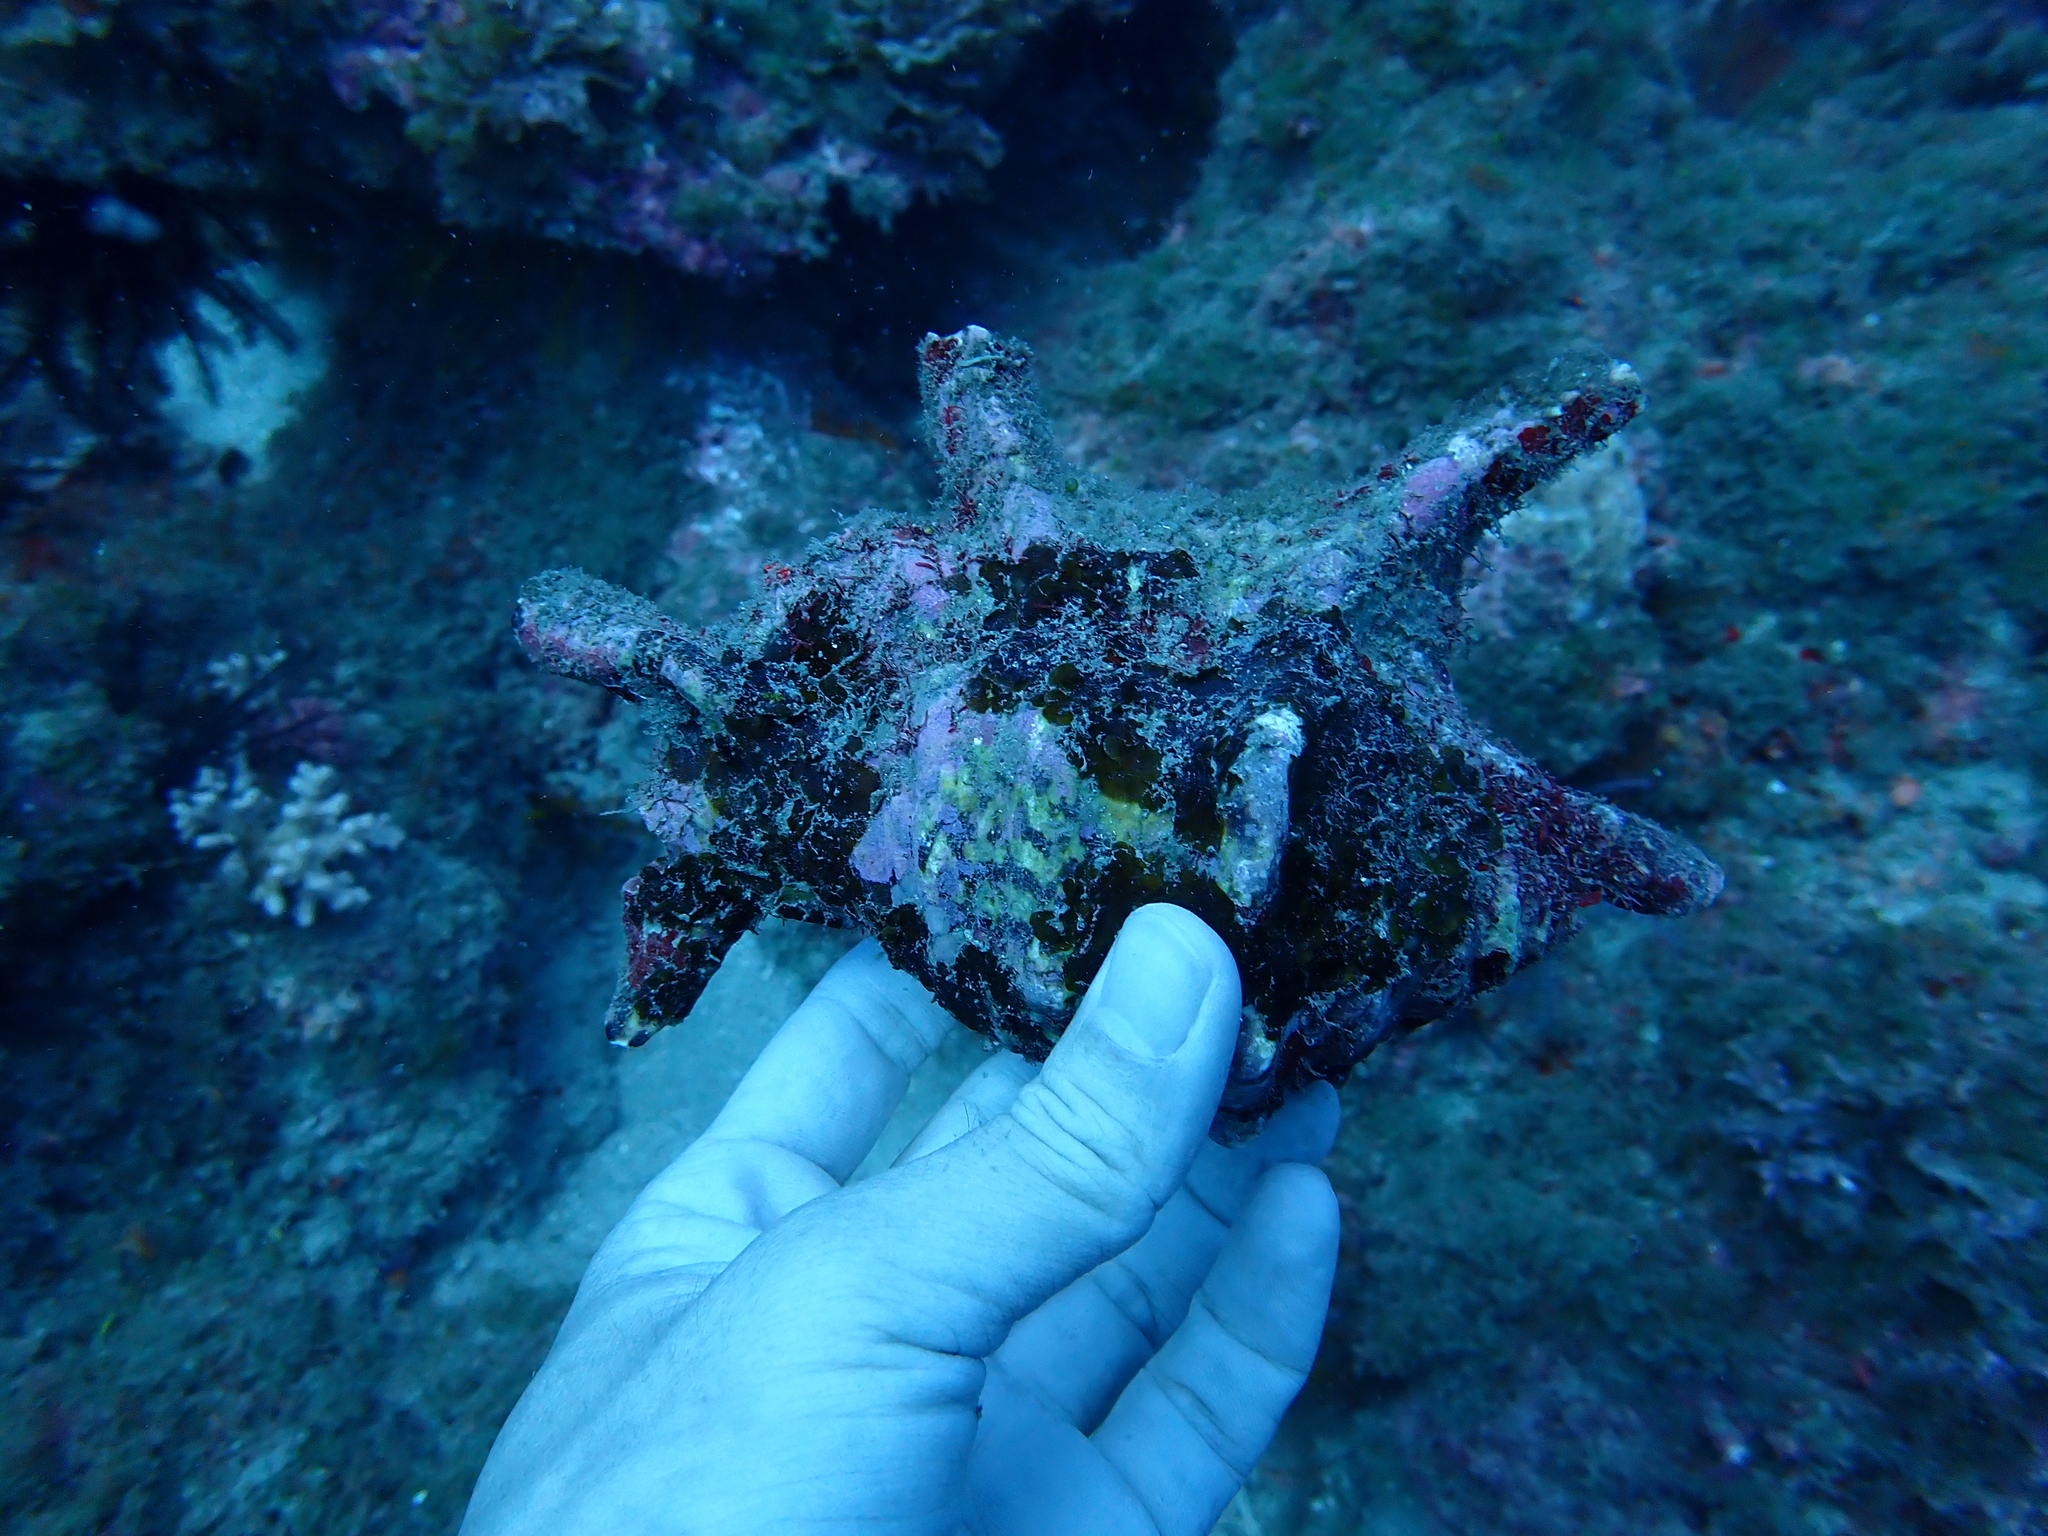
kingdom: Animalia
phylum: Mollusca
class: Gastropoda
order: Littorinimorpha
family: Strombidae
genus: Harpago
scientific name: Harpago chiragra
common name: Chiragra spider conch
